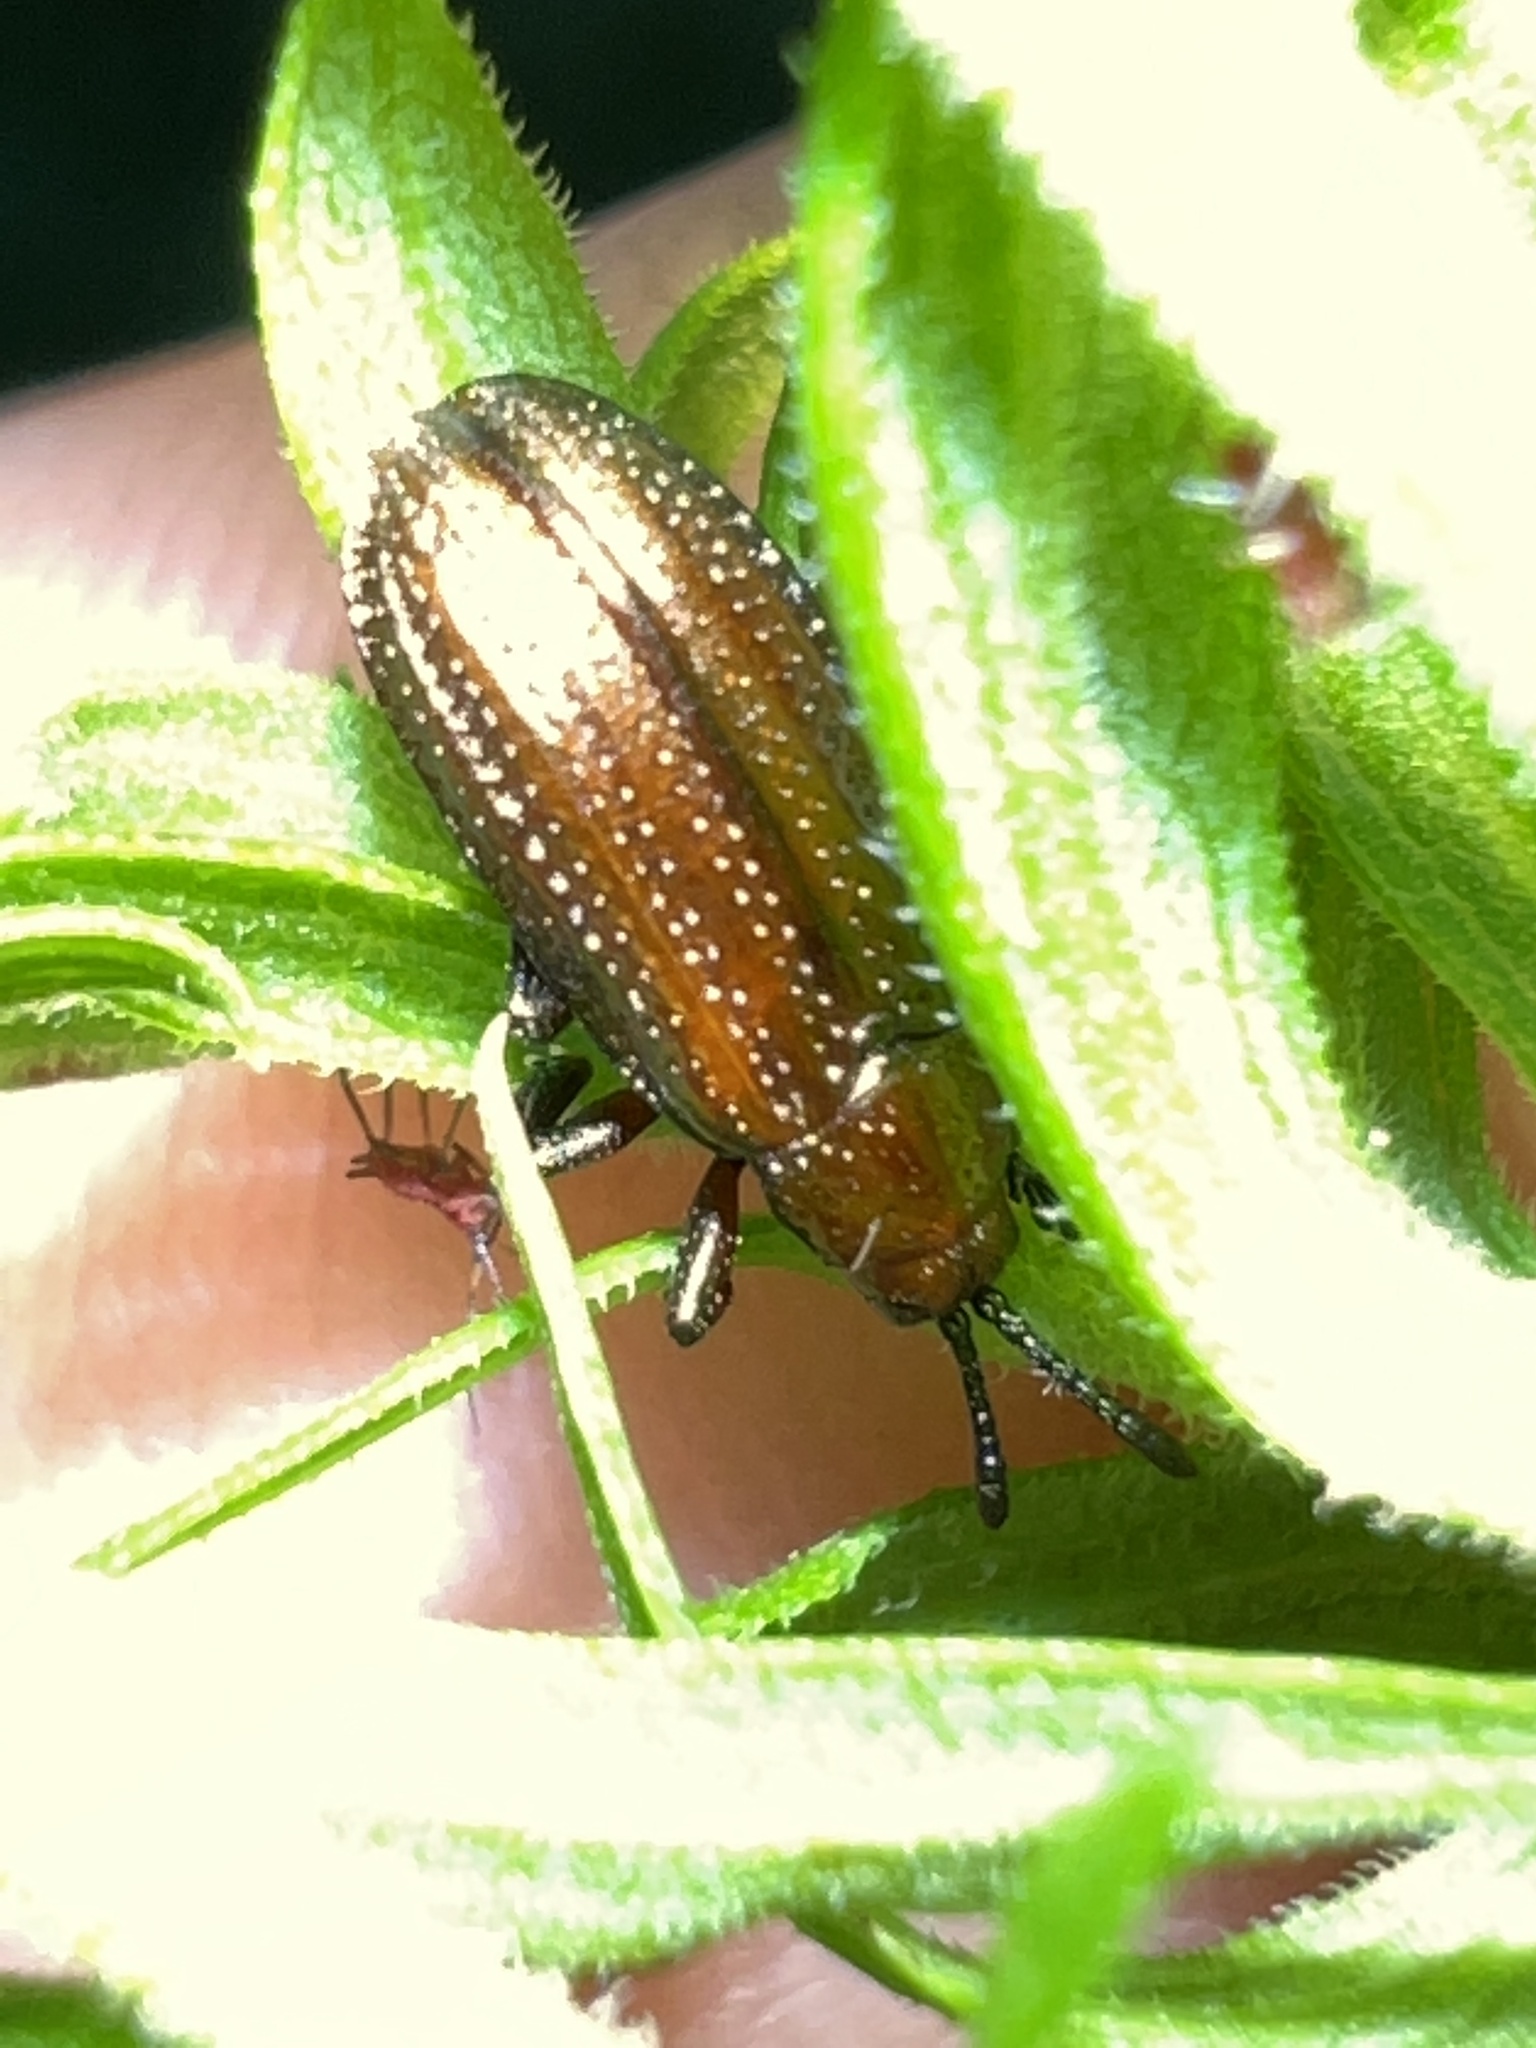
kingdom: Animalia
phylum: Arthropoda
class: Insecta
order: Coleoptera
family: Chrysomelidae
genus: Microrhopala
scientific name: Microrhopala vittata
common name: Goldenrod leaf miner beetle
